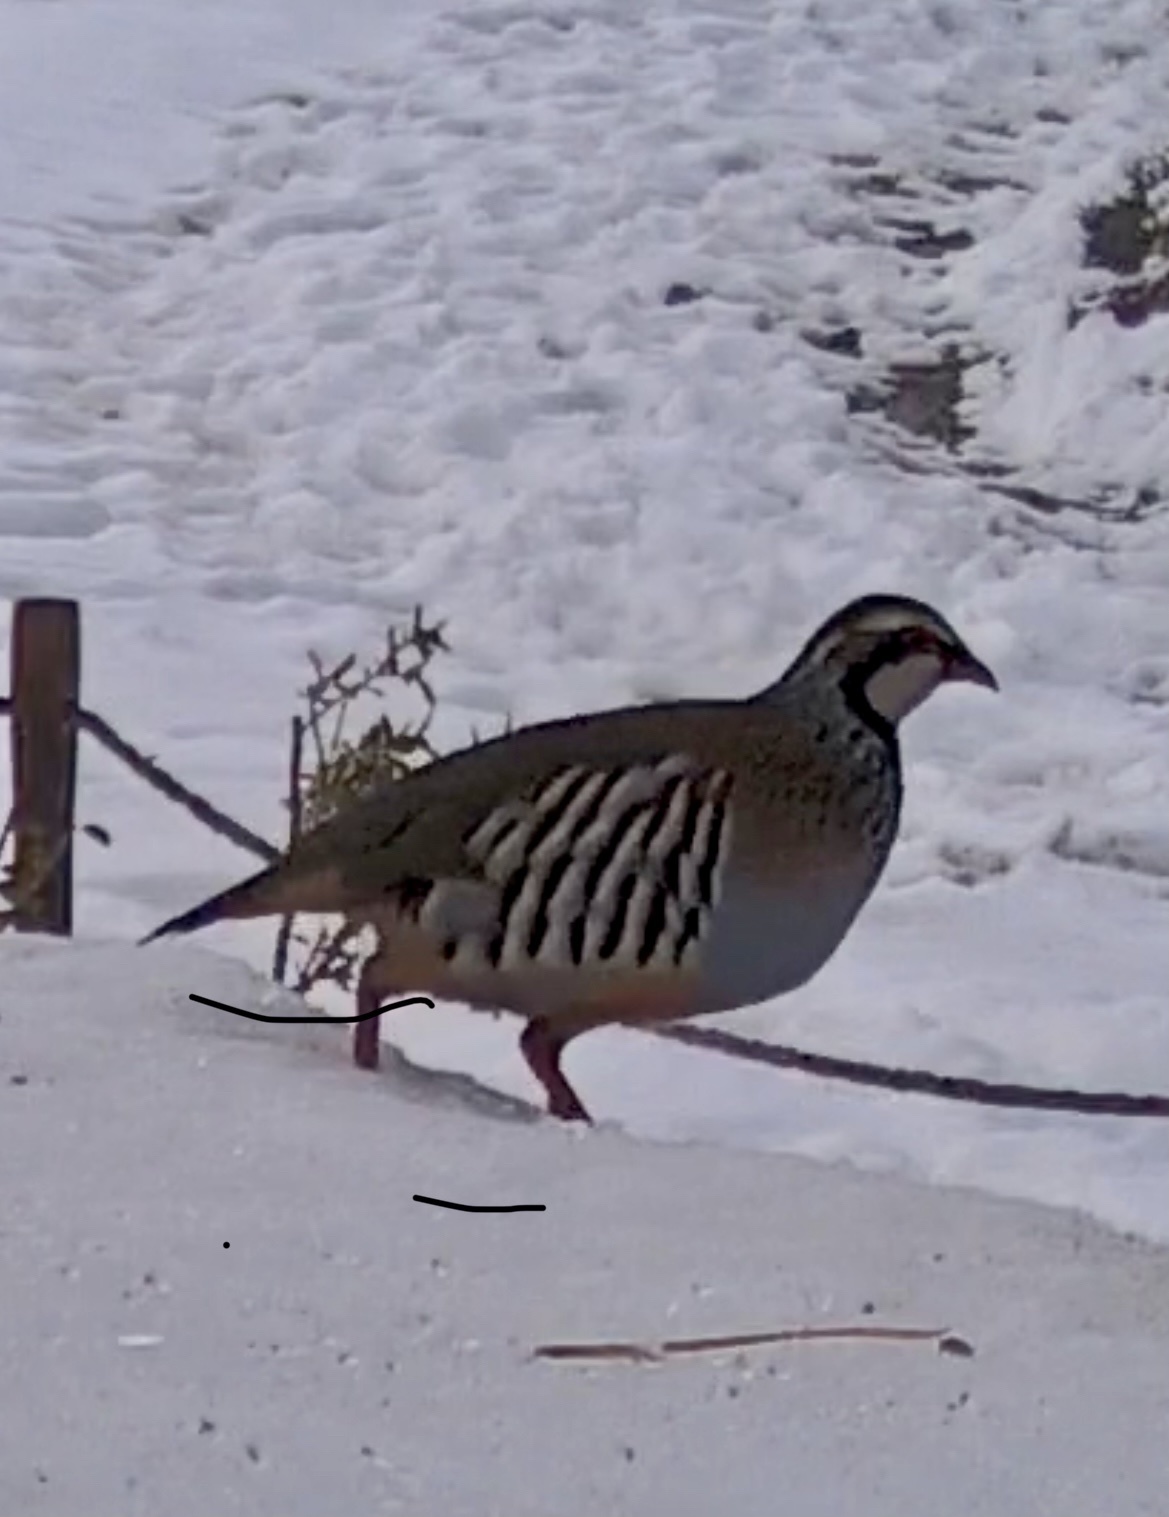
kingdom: Animalia
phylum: Chordata
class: Aves
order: Galliformes
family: Phasianidae
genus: Alectoris
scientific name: Alectoris rufa
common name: Red-legged partridge
